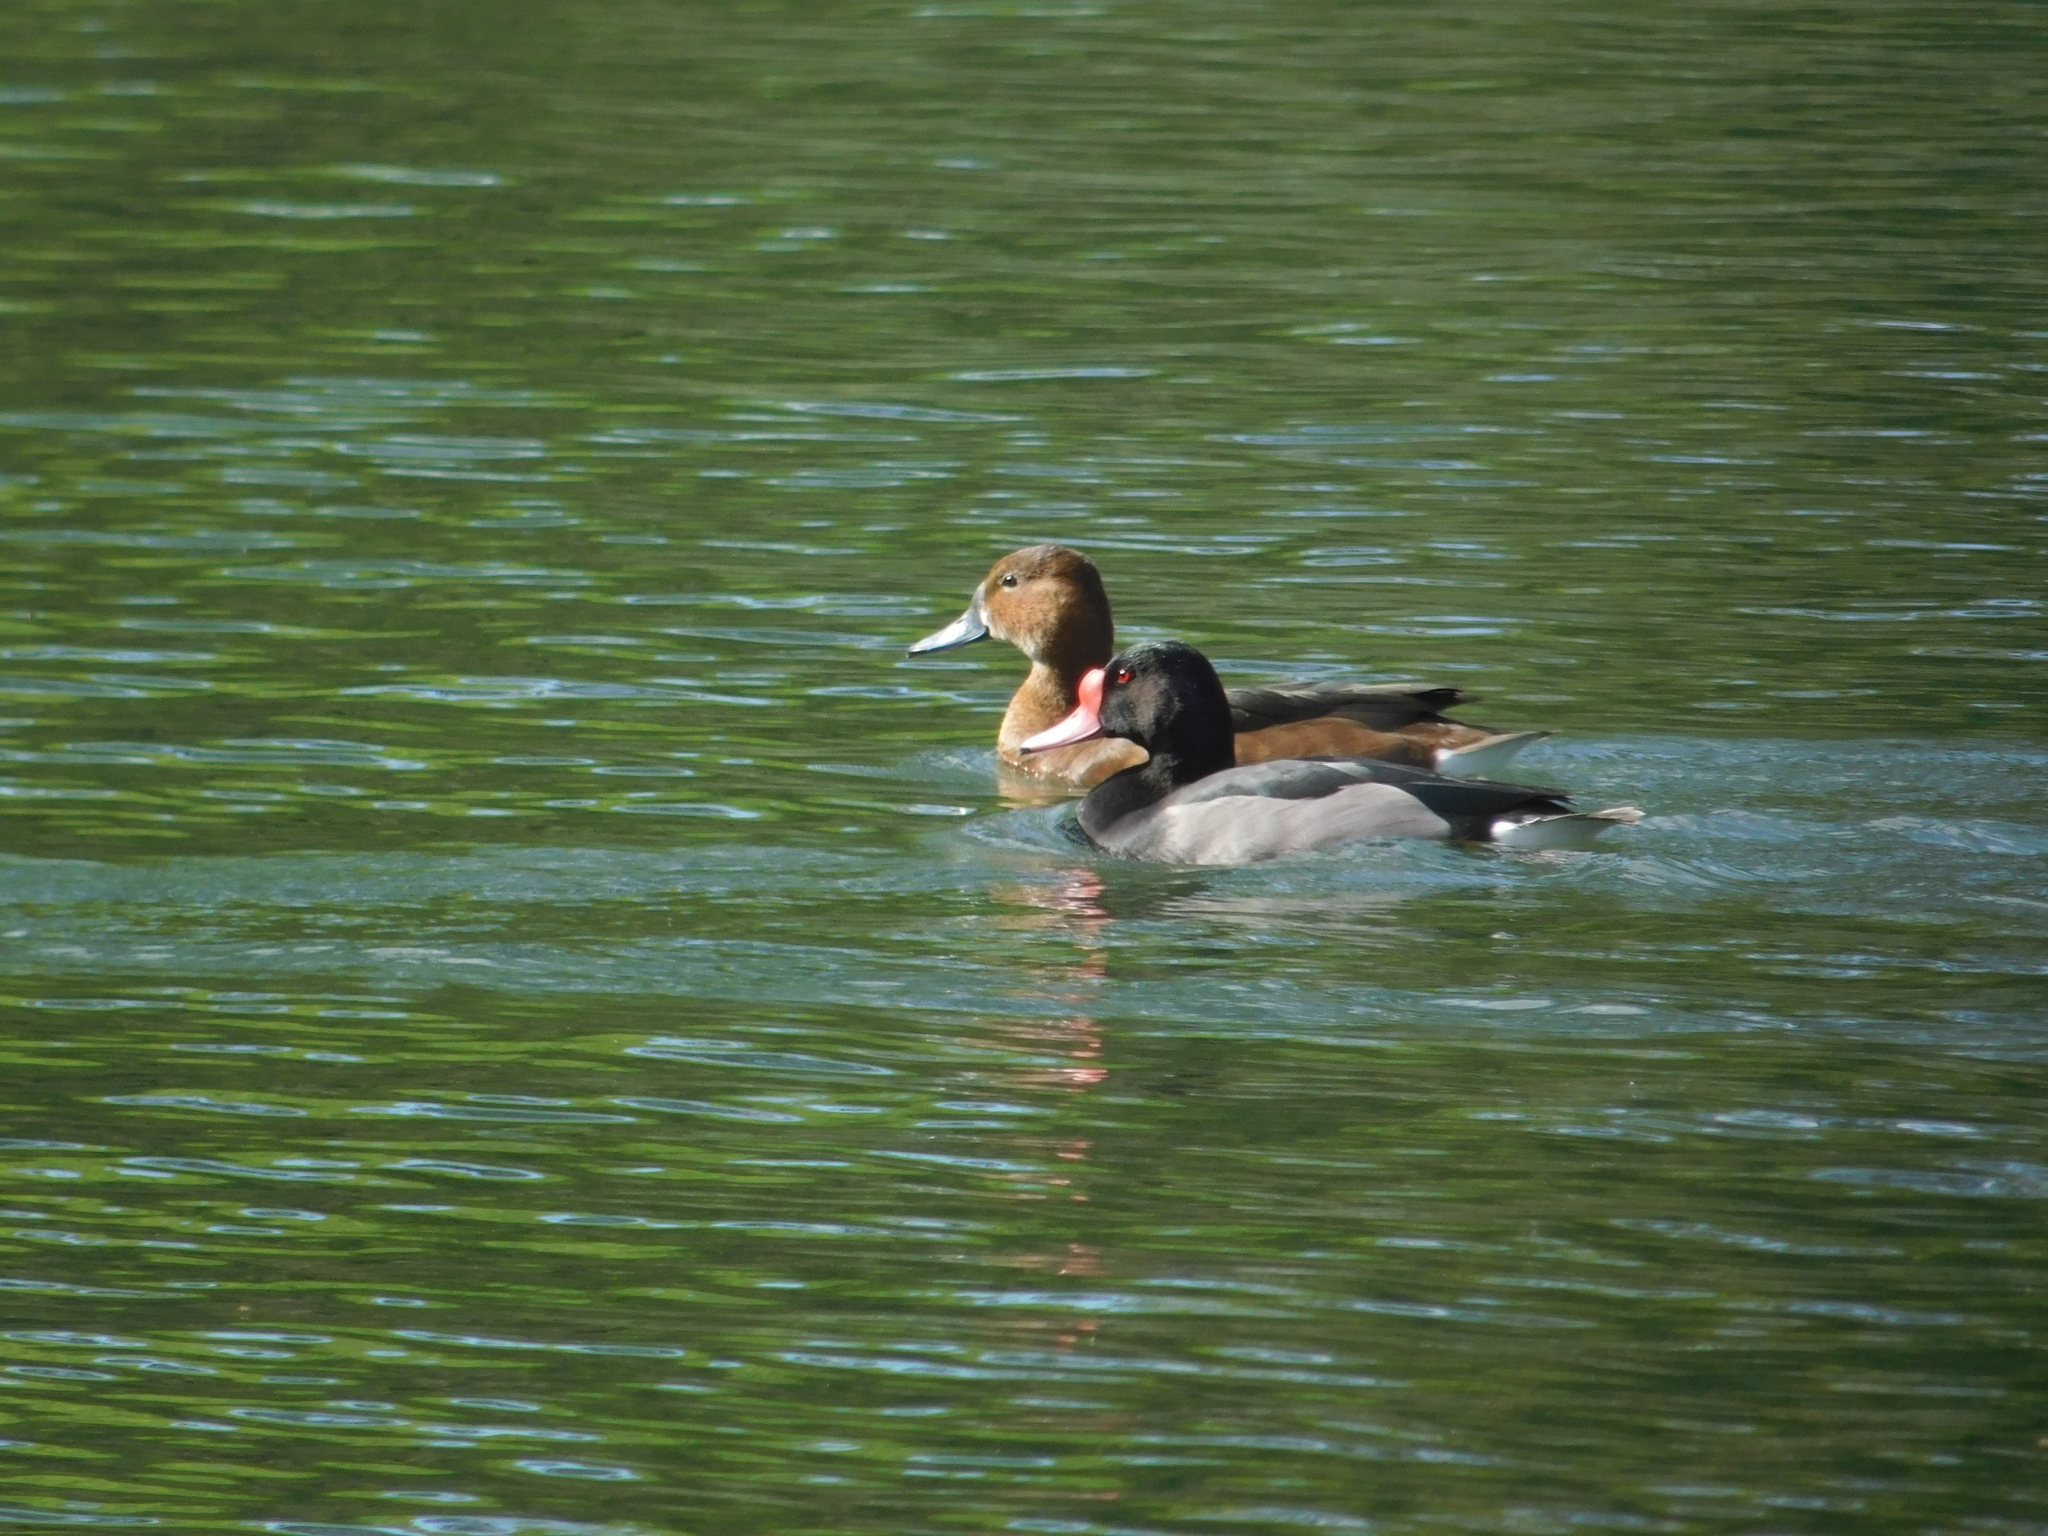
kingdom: Animalia
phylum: Chordata
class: Aves
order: Anseriformes
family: Anatidae
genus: Netta
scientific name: Netta peposaca
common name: Rosy-billed pochard
